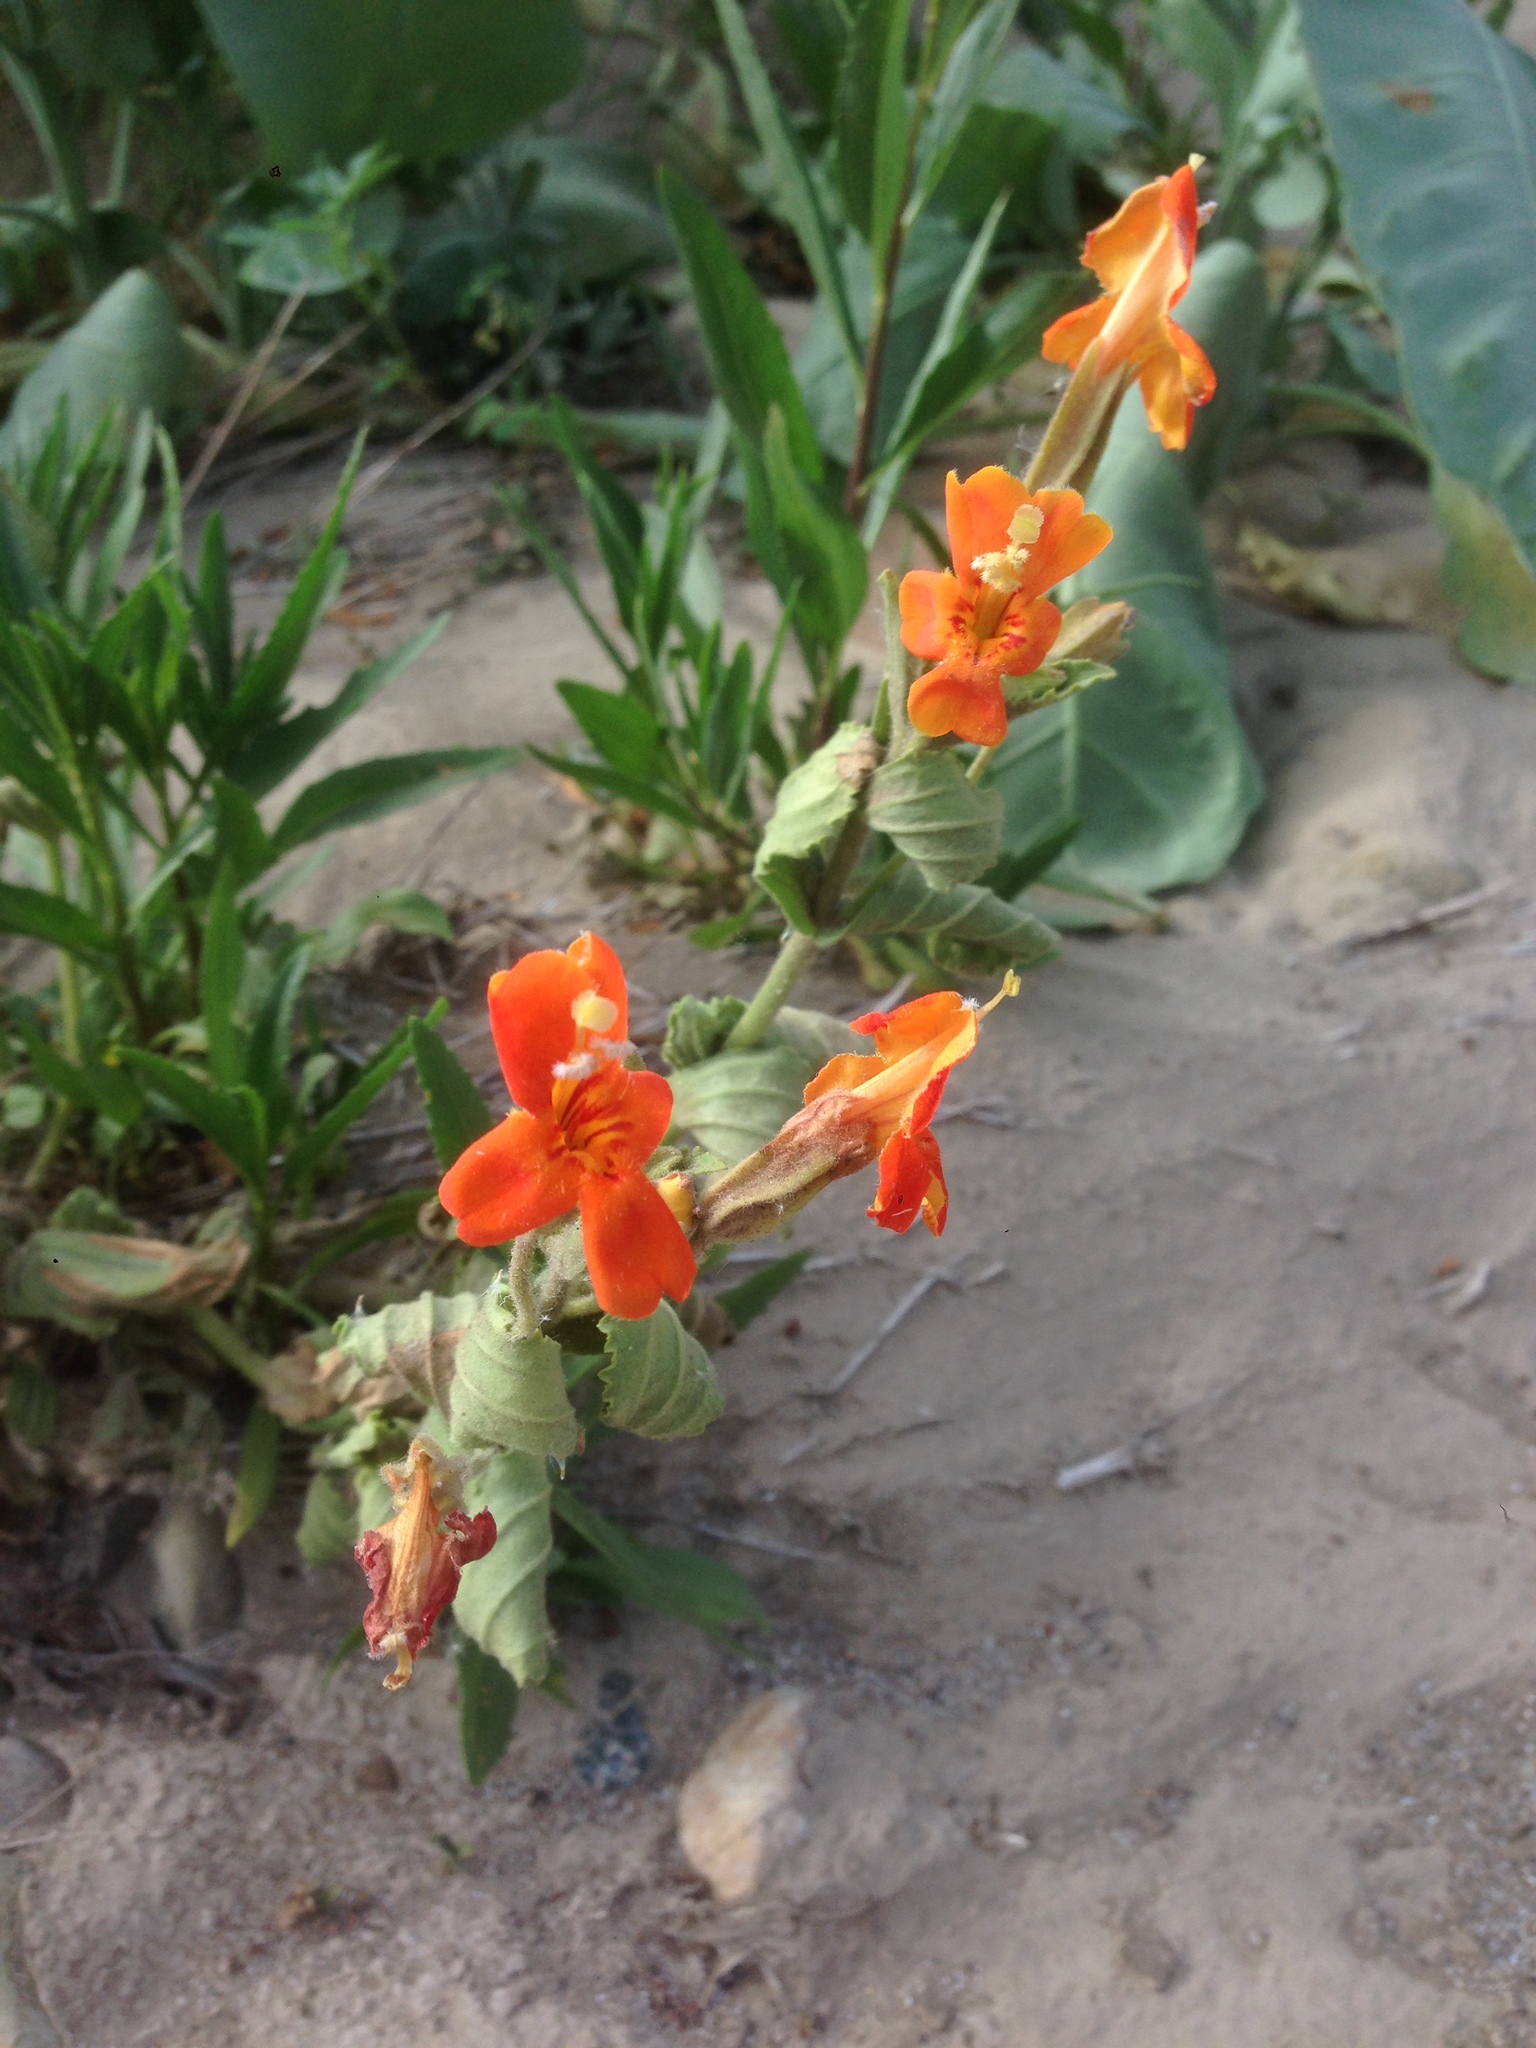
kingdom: Plantae
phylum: Tracheophyta
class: Magnoliopsida
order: Lamiales
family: Phrymaceae
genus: Erythranthe
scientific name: Erythranthe cardinalis
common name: Scarlet monkey-flower
